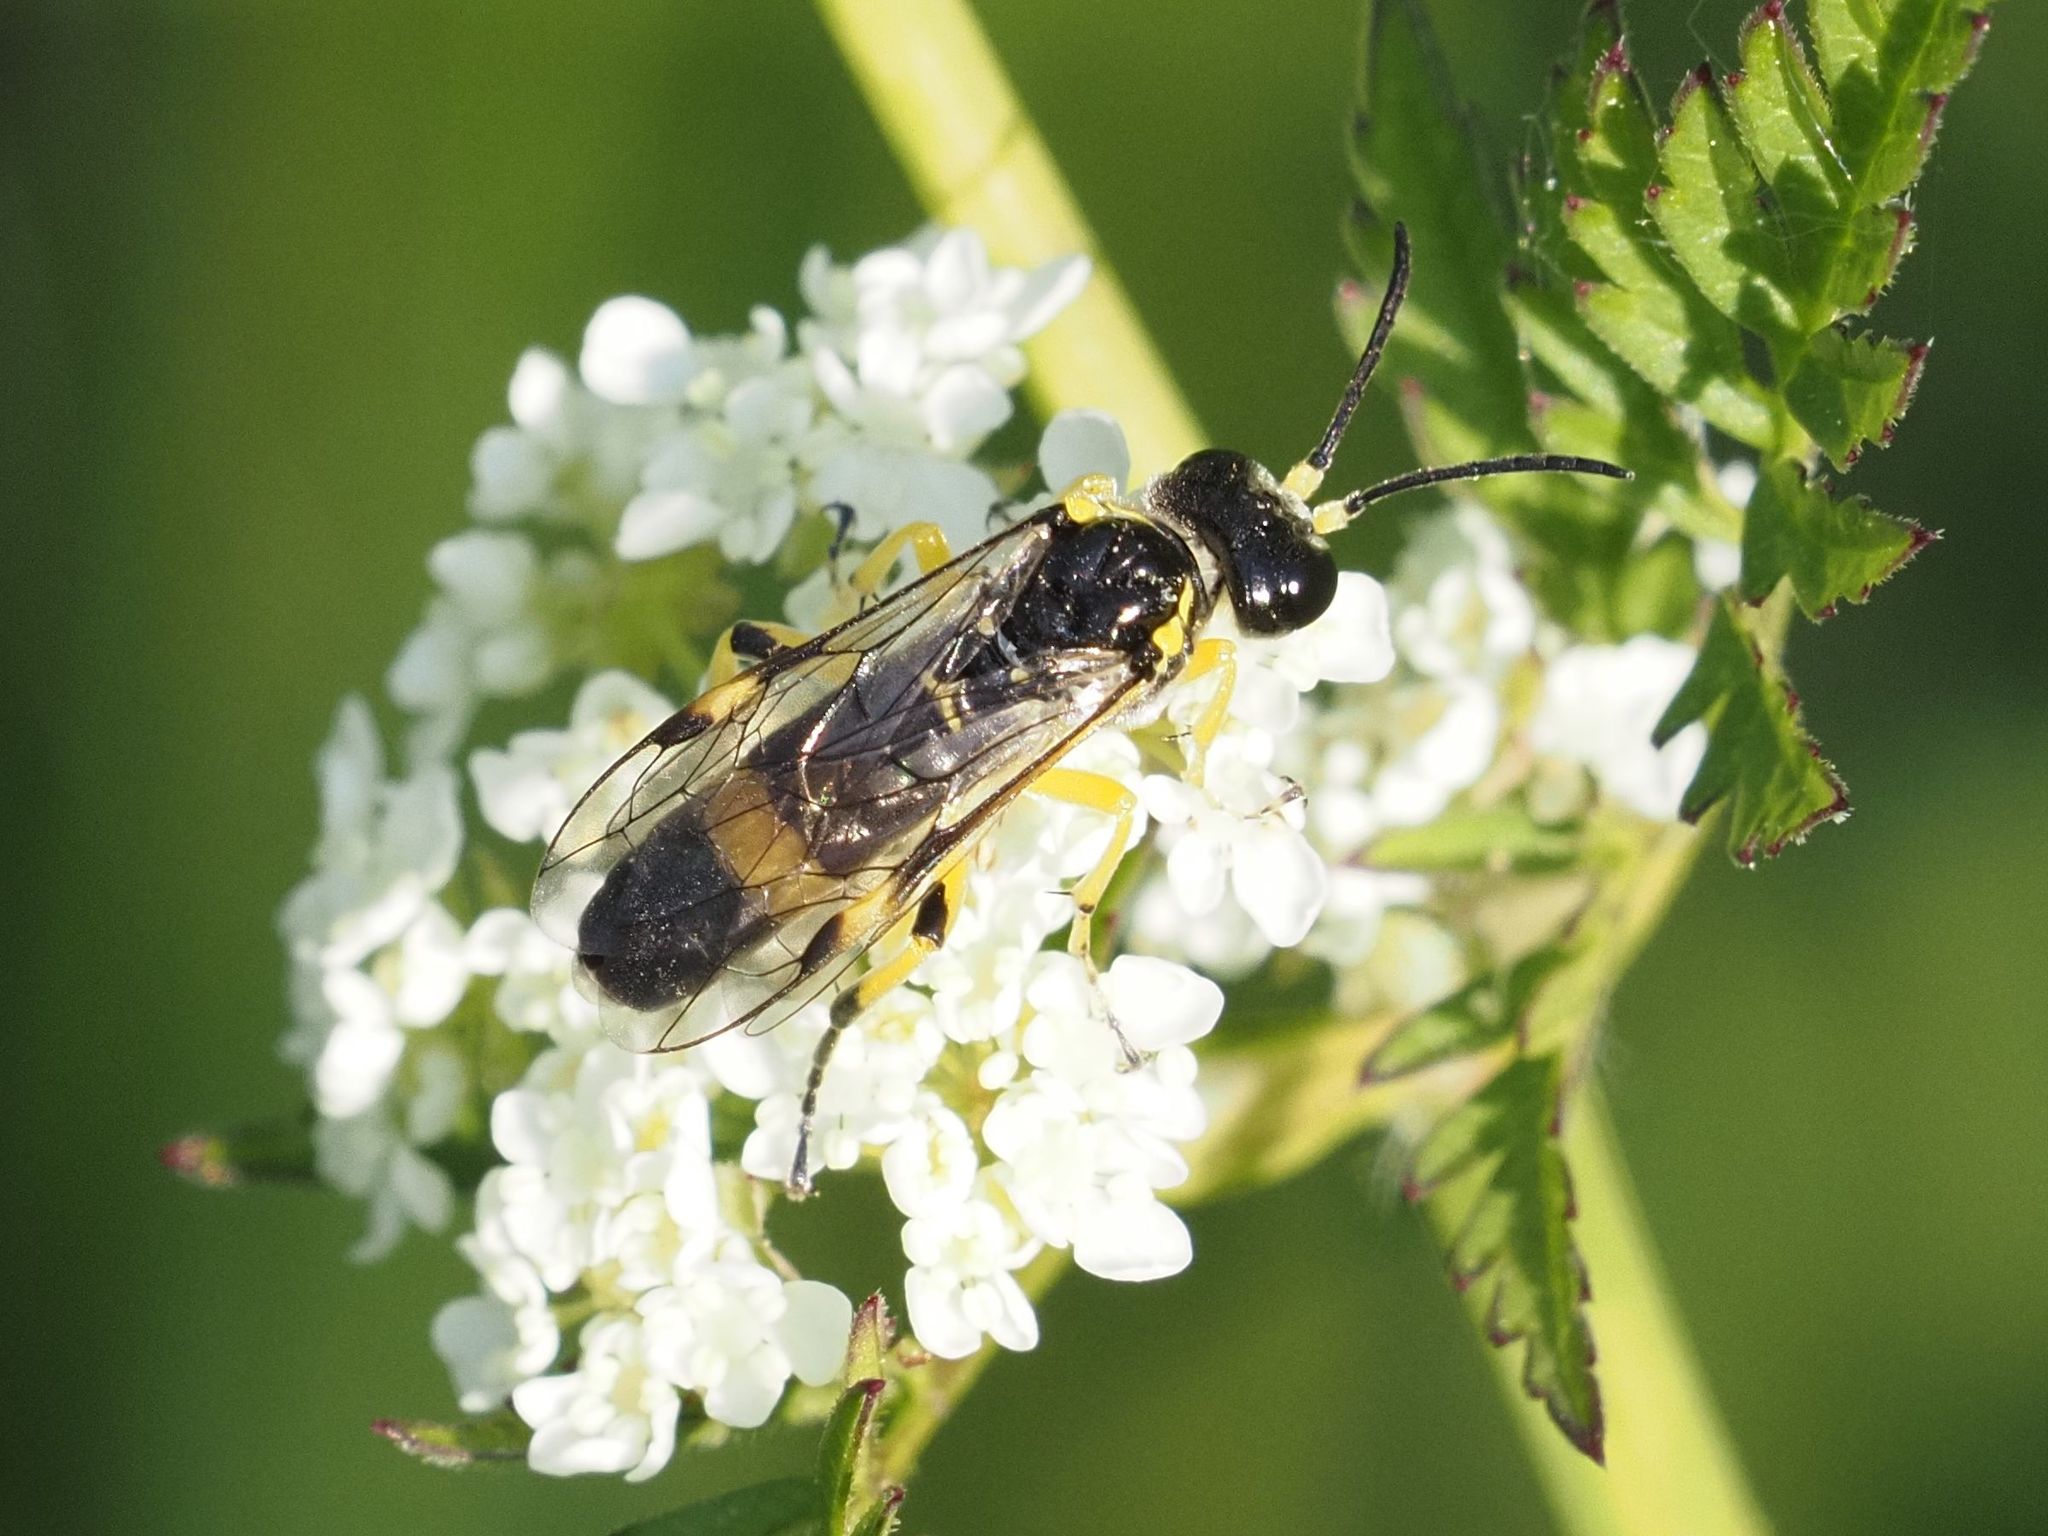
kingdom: Animalia
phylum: Arthropoda
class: Insecta
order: Hymenoptera
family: Tenthredinidae
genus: Tenthredo
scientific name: Tenthredo zonula
